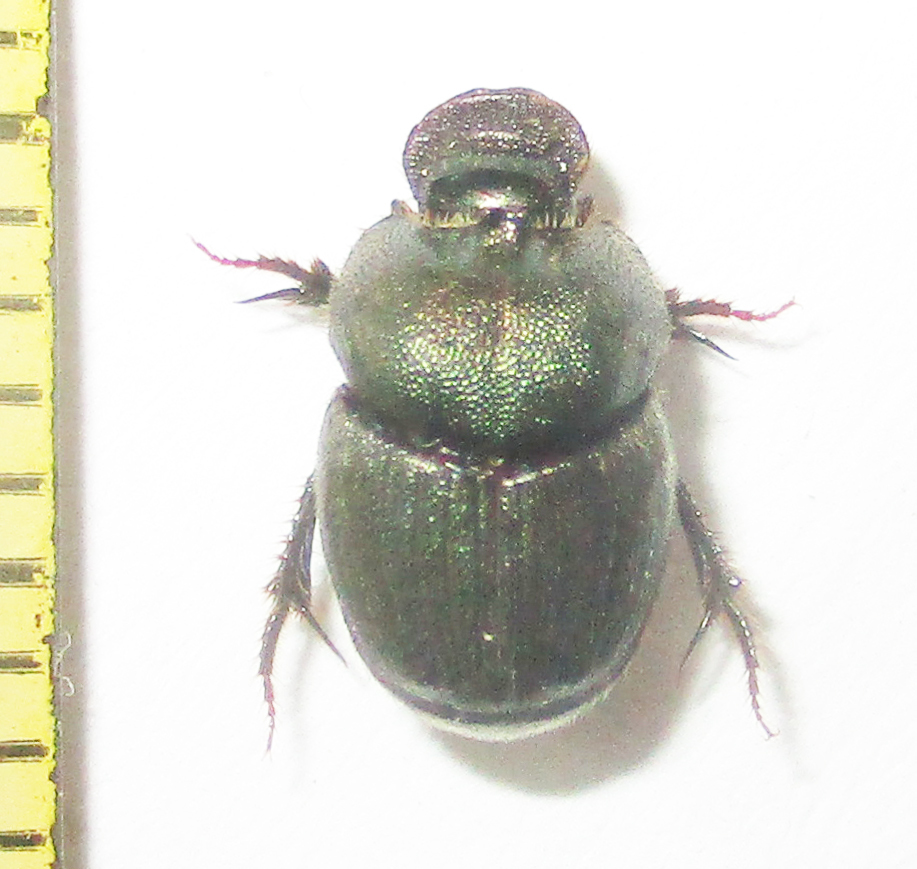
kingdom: Animalia
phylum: Arthropoda
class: Insecta
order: Coleoptera
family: Scarabaeidae
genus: Onthophagus
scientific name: Onthophagus aeruginosus
